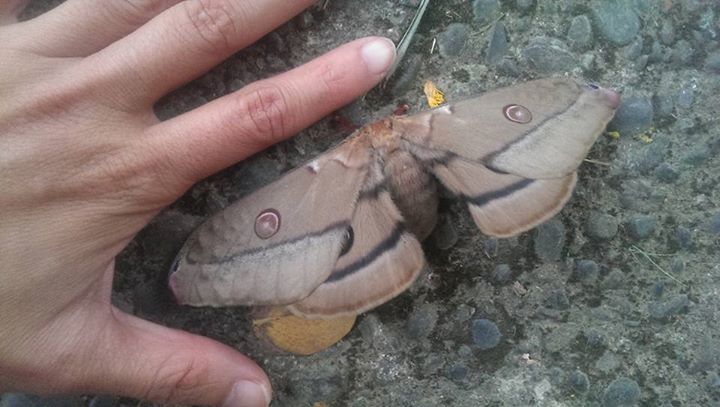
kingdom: Animalia
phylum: Arthropoda
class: Insecta
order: Lepidoptera
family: Saturniidae
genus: Opodiphthera
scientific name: Opodiphthera
